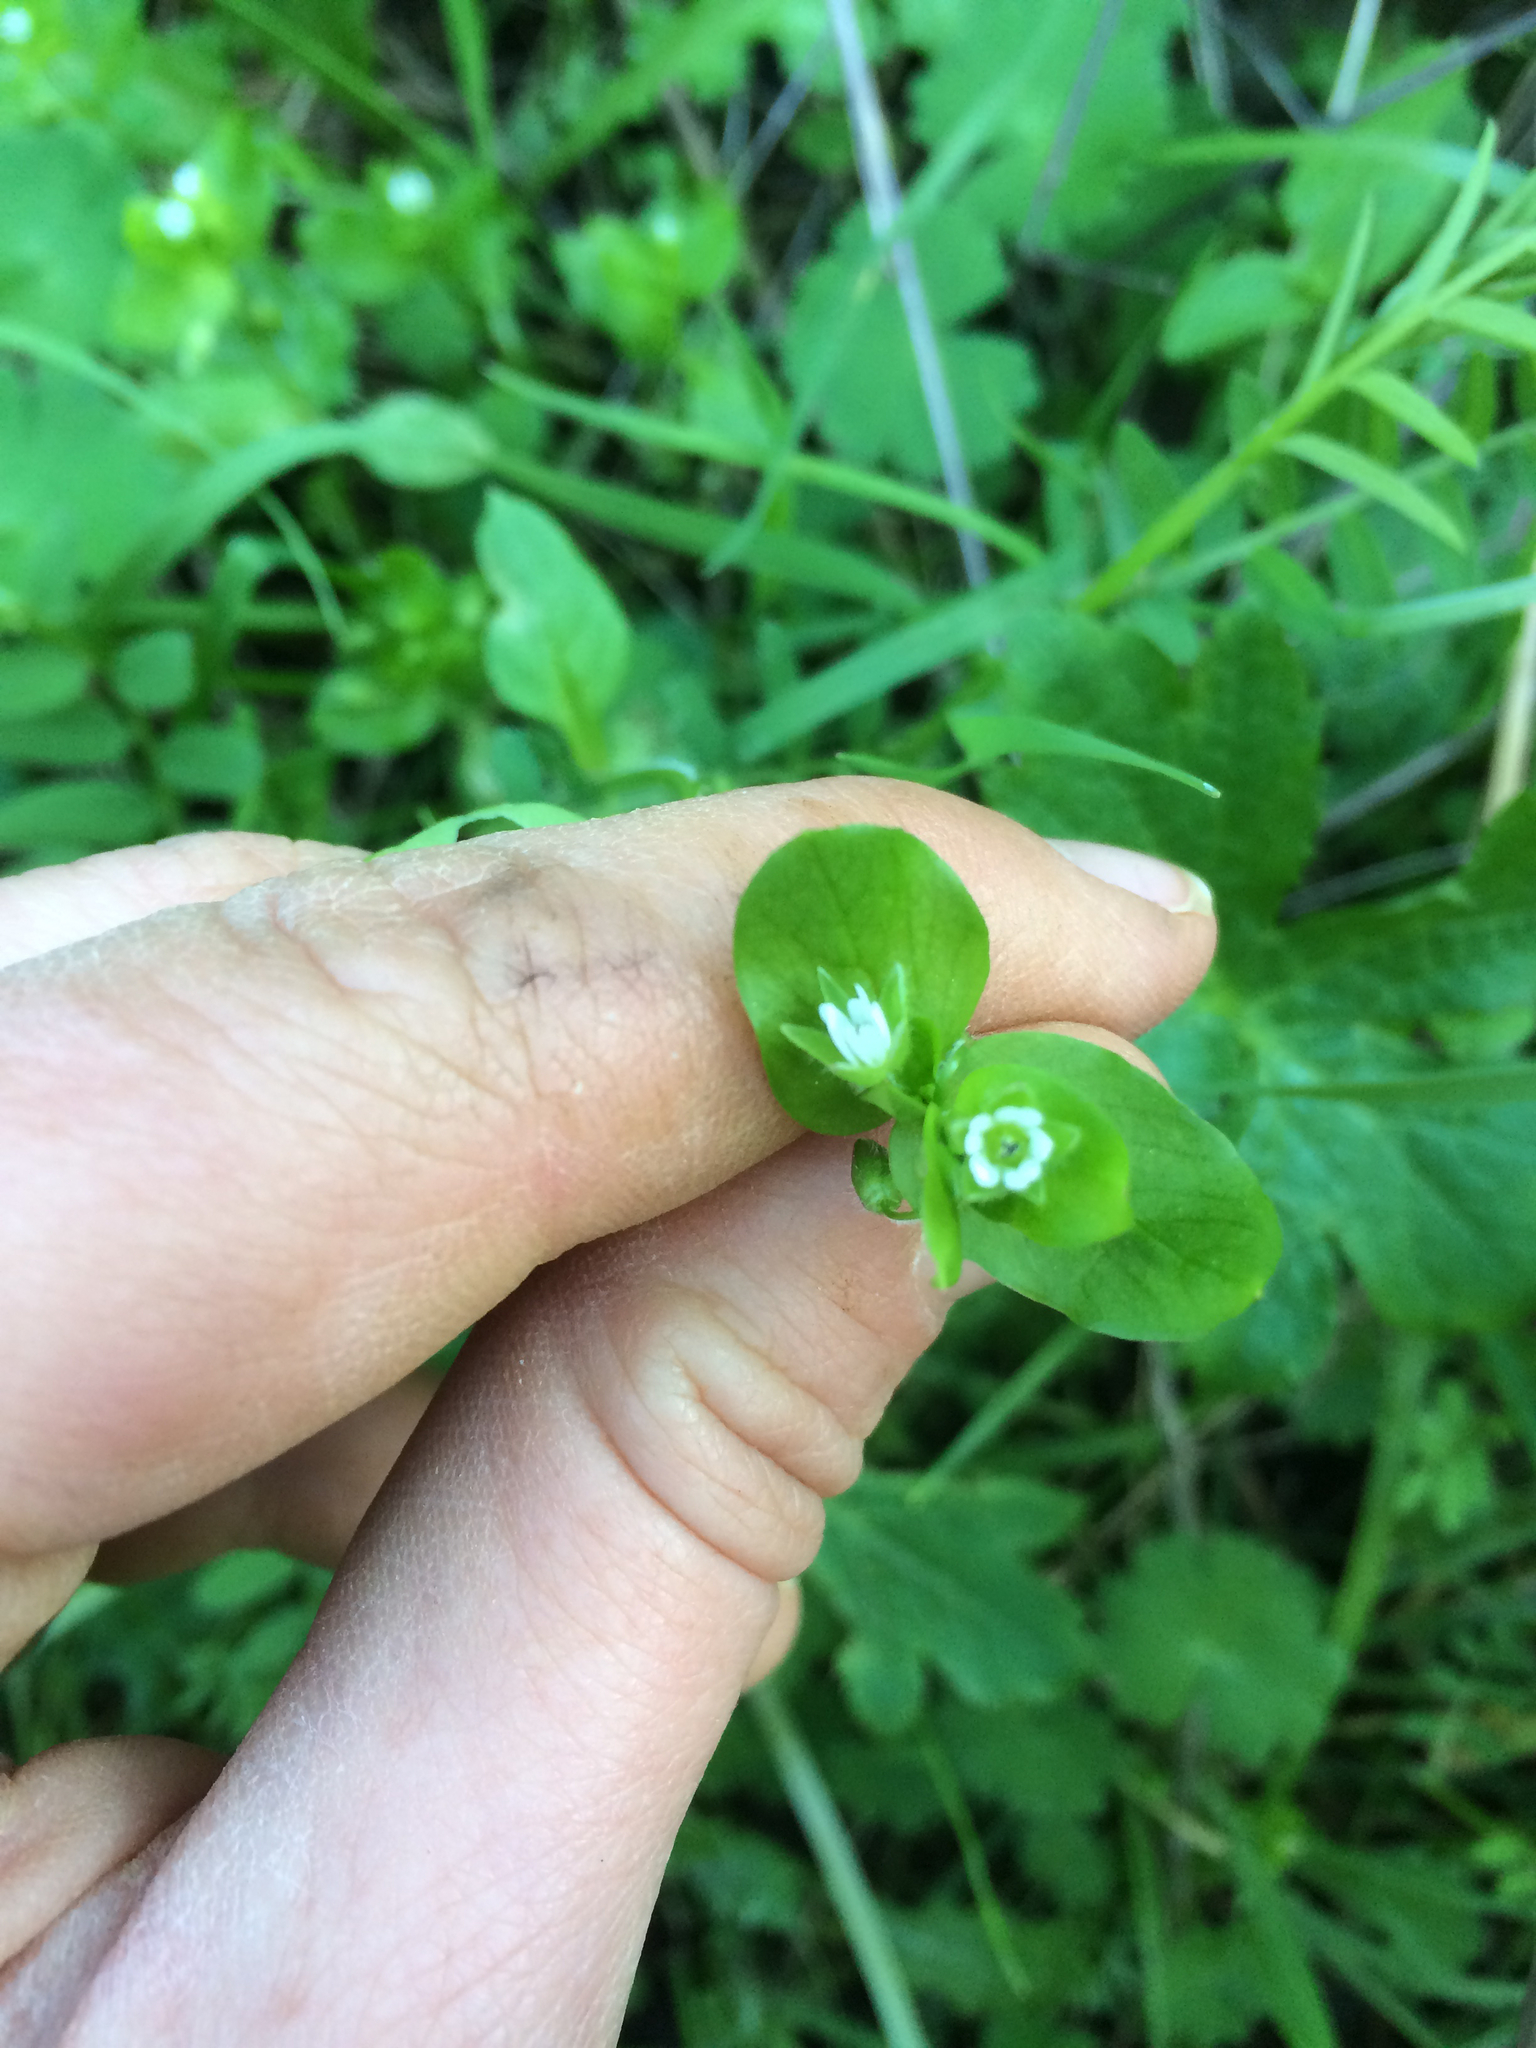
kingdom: Plantae
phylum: Tracheophyta
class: Magnoliopsida
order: Caryophyllales
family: Caryophyllaceae
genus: Stellaria
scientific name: Stellaria media
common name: Common chickweed
